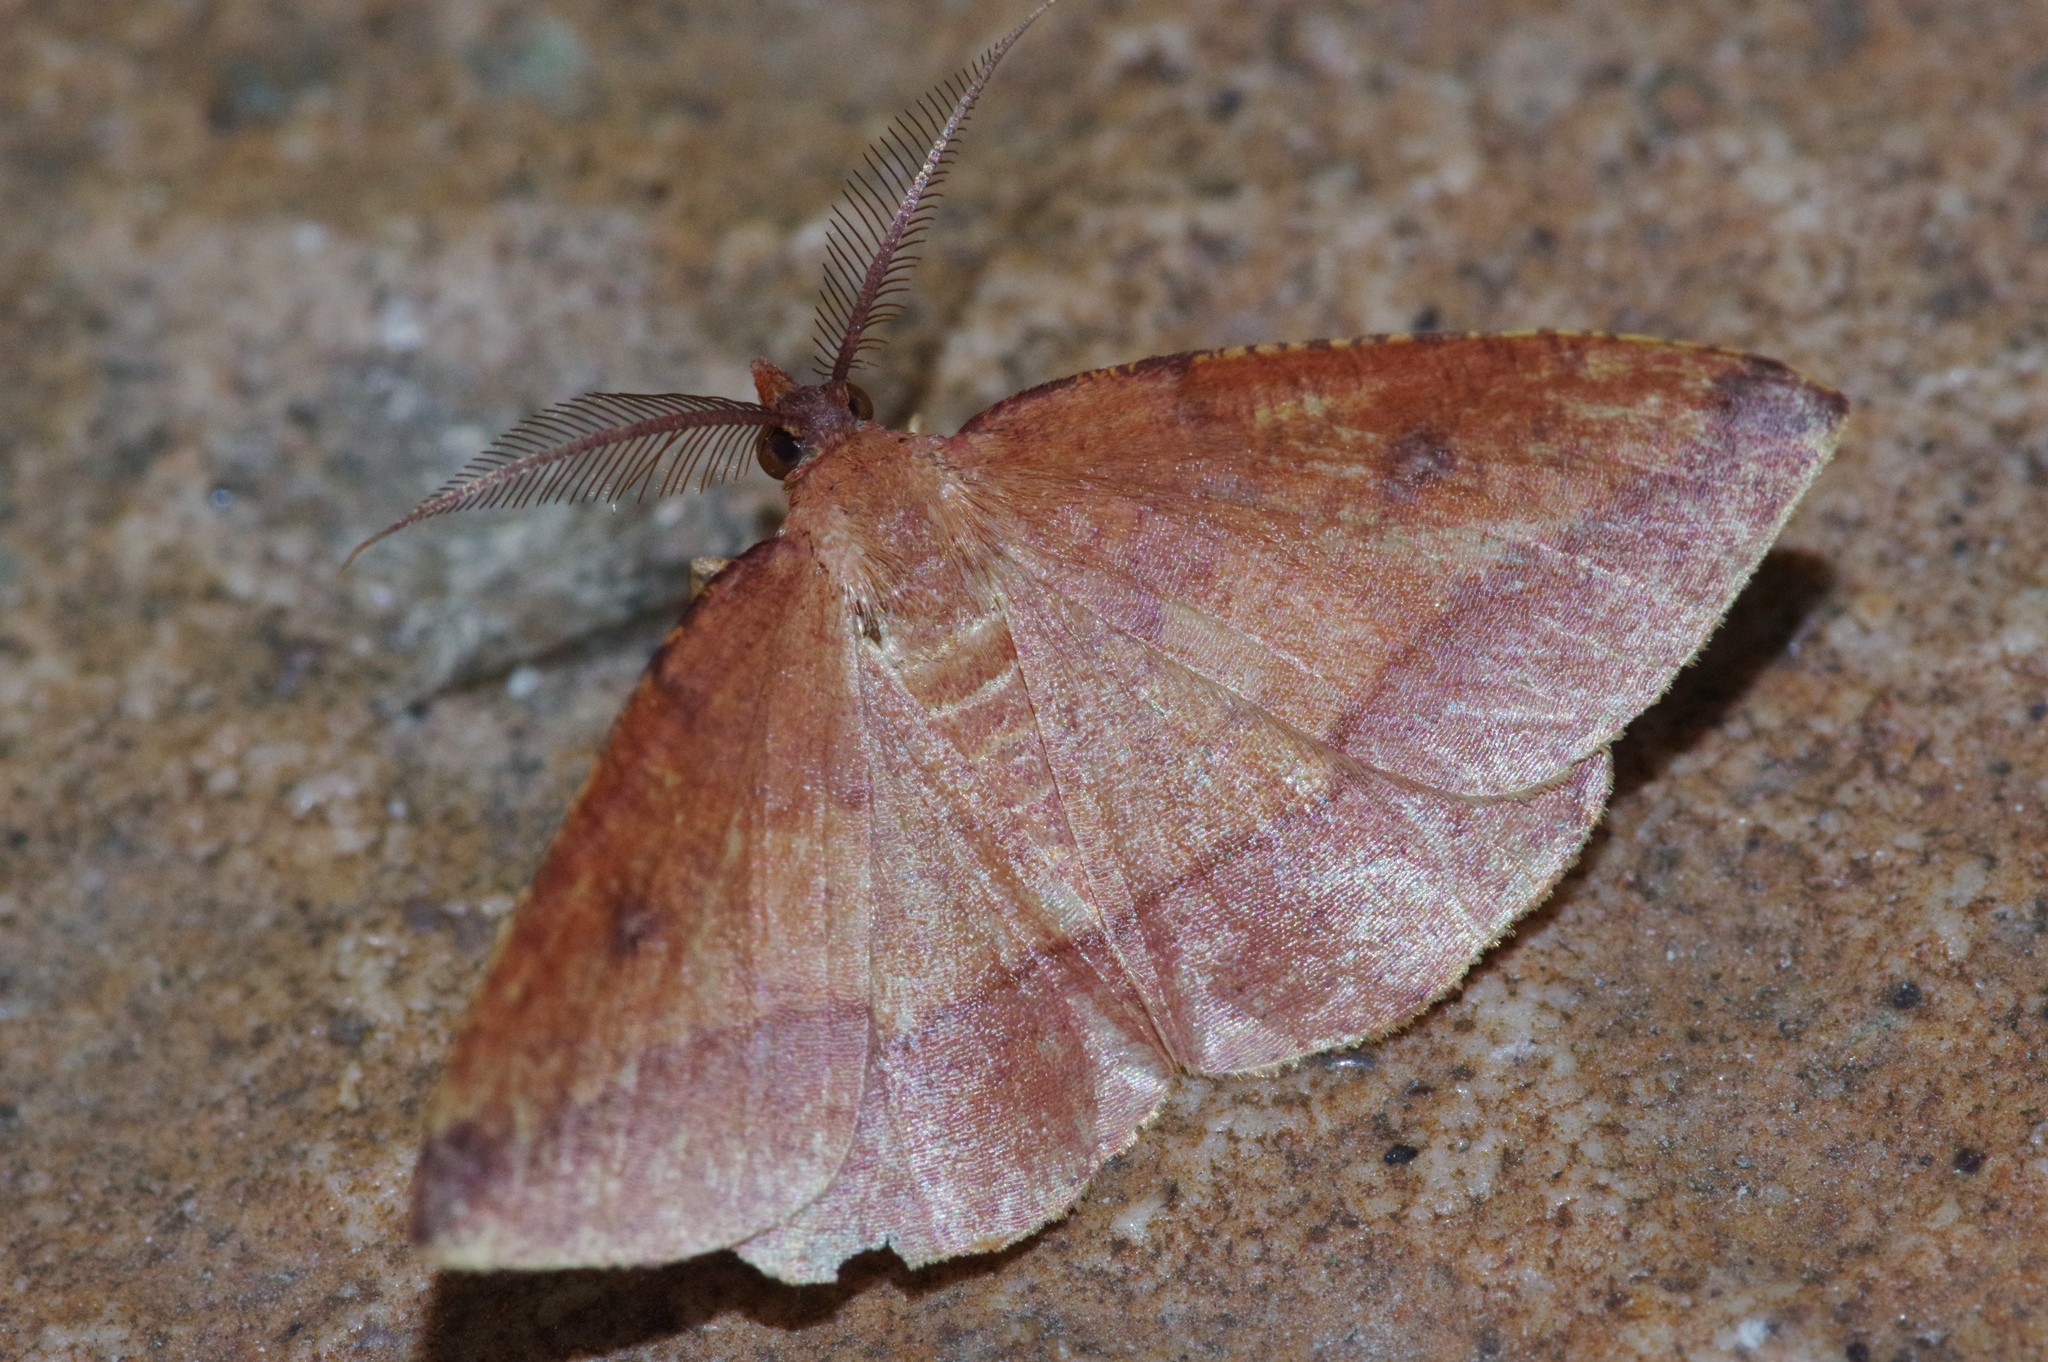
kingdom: Animalia
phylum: Arthropoda
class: Insecta
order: Lepidoptera
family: Geometridae
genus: Heterolocha
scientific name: Heterolocha aristonaria
